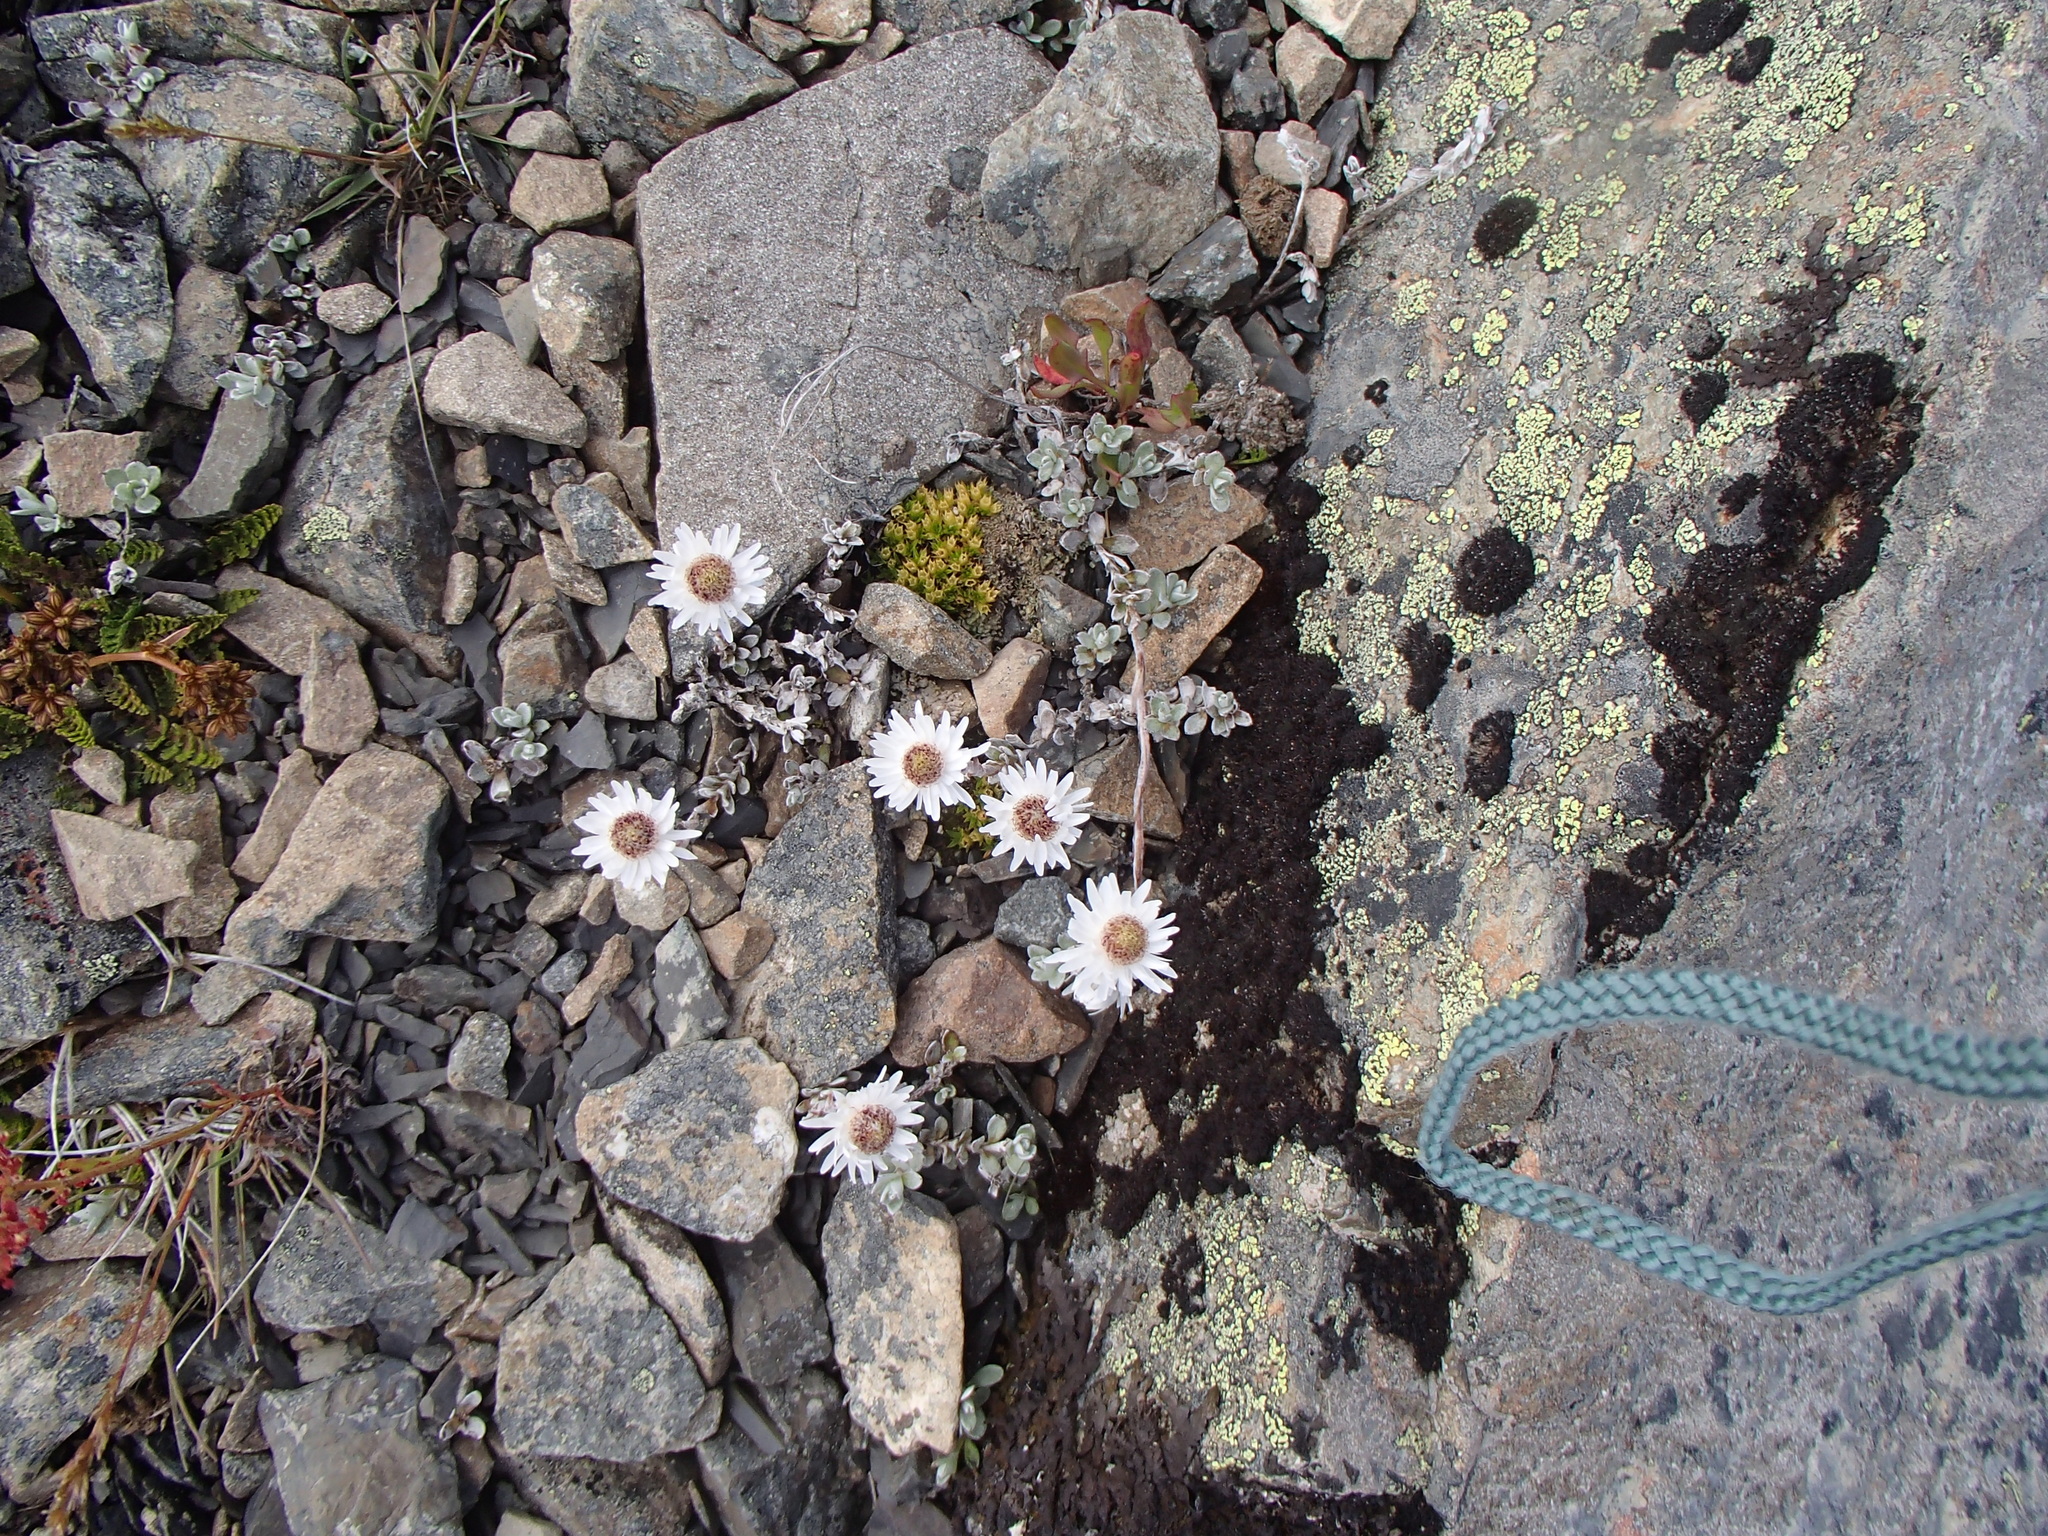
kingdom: Plantae
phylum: Tracheophyta
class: Magnoliopsida
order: Asterales
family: Asteraceae
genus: Anaphalioides
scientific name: Anaphalioides bellidioides
